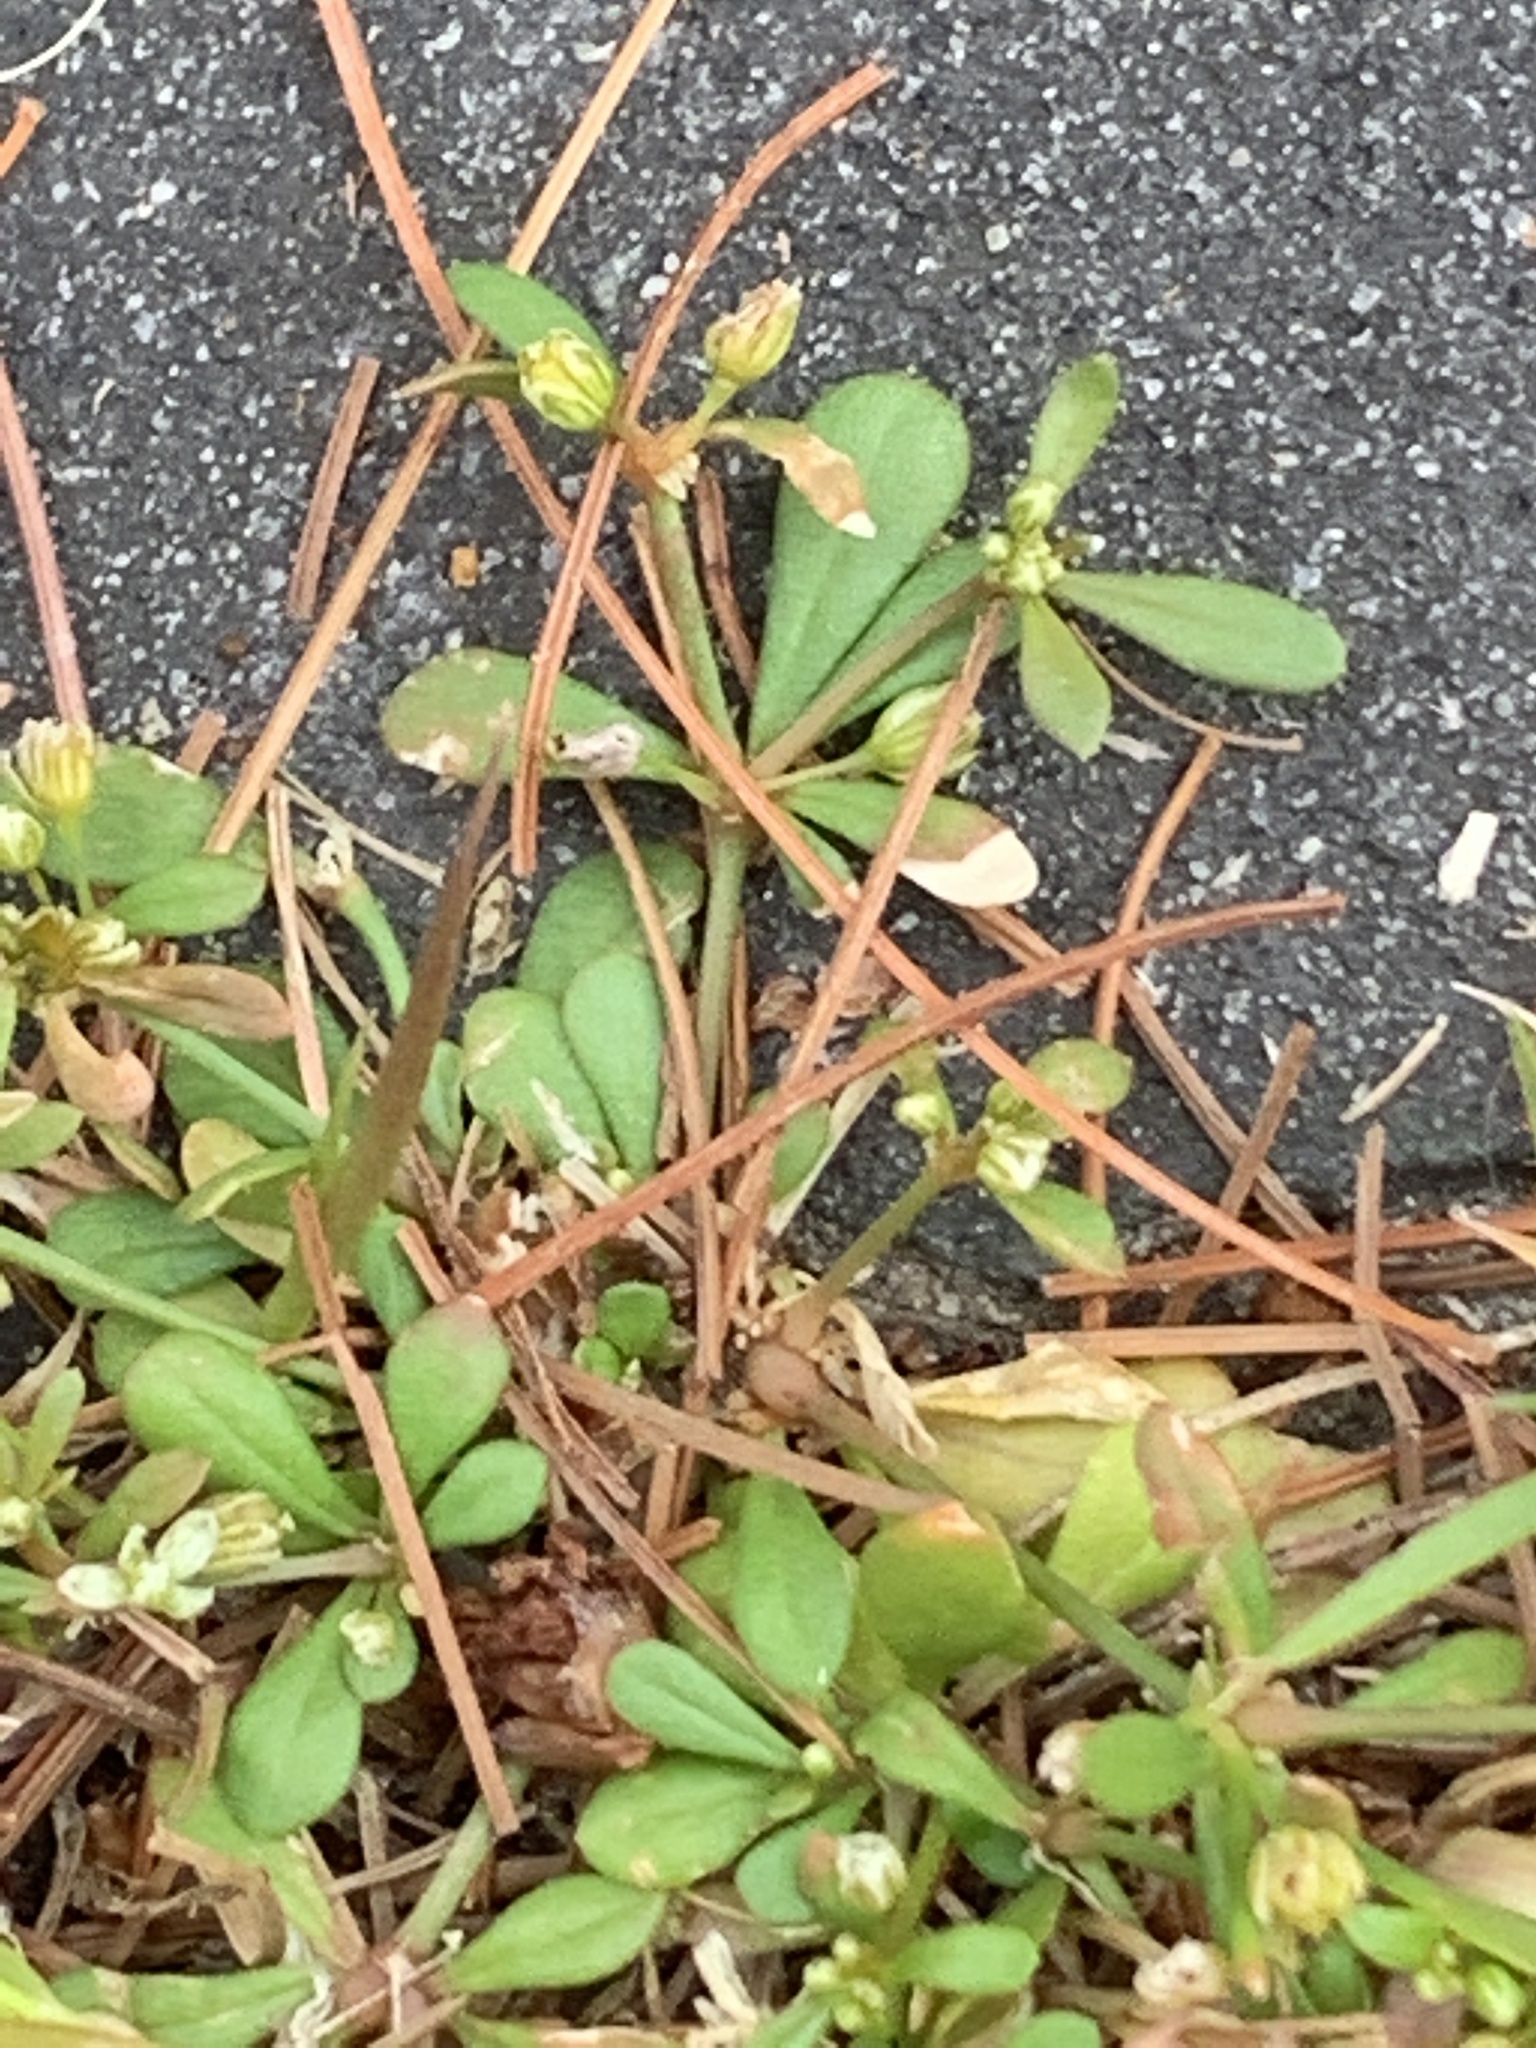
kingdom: Plantae
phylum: Tracheophyta
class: Magnoliopsida
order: Caryophyllales
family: Molluginaceae
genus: Mollugo
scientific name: Mollugo verticillata
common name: Green carpetweed
